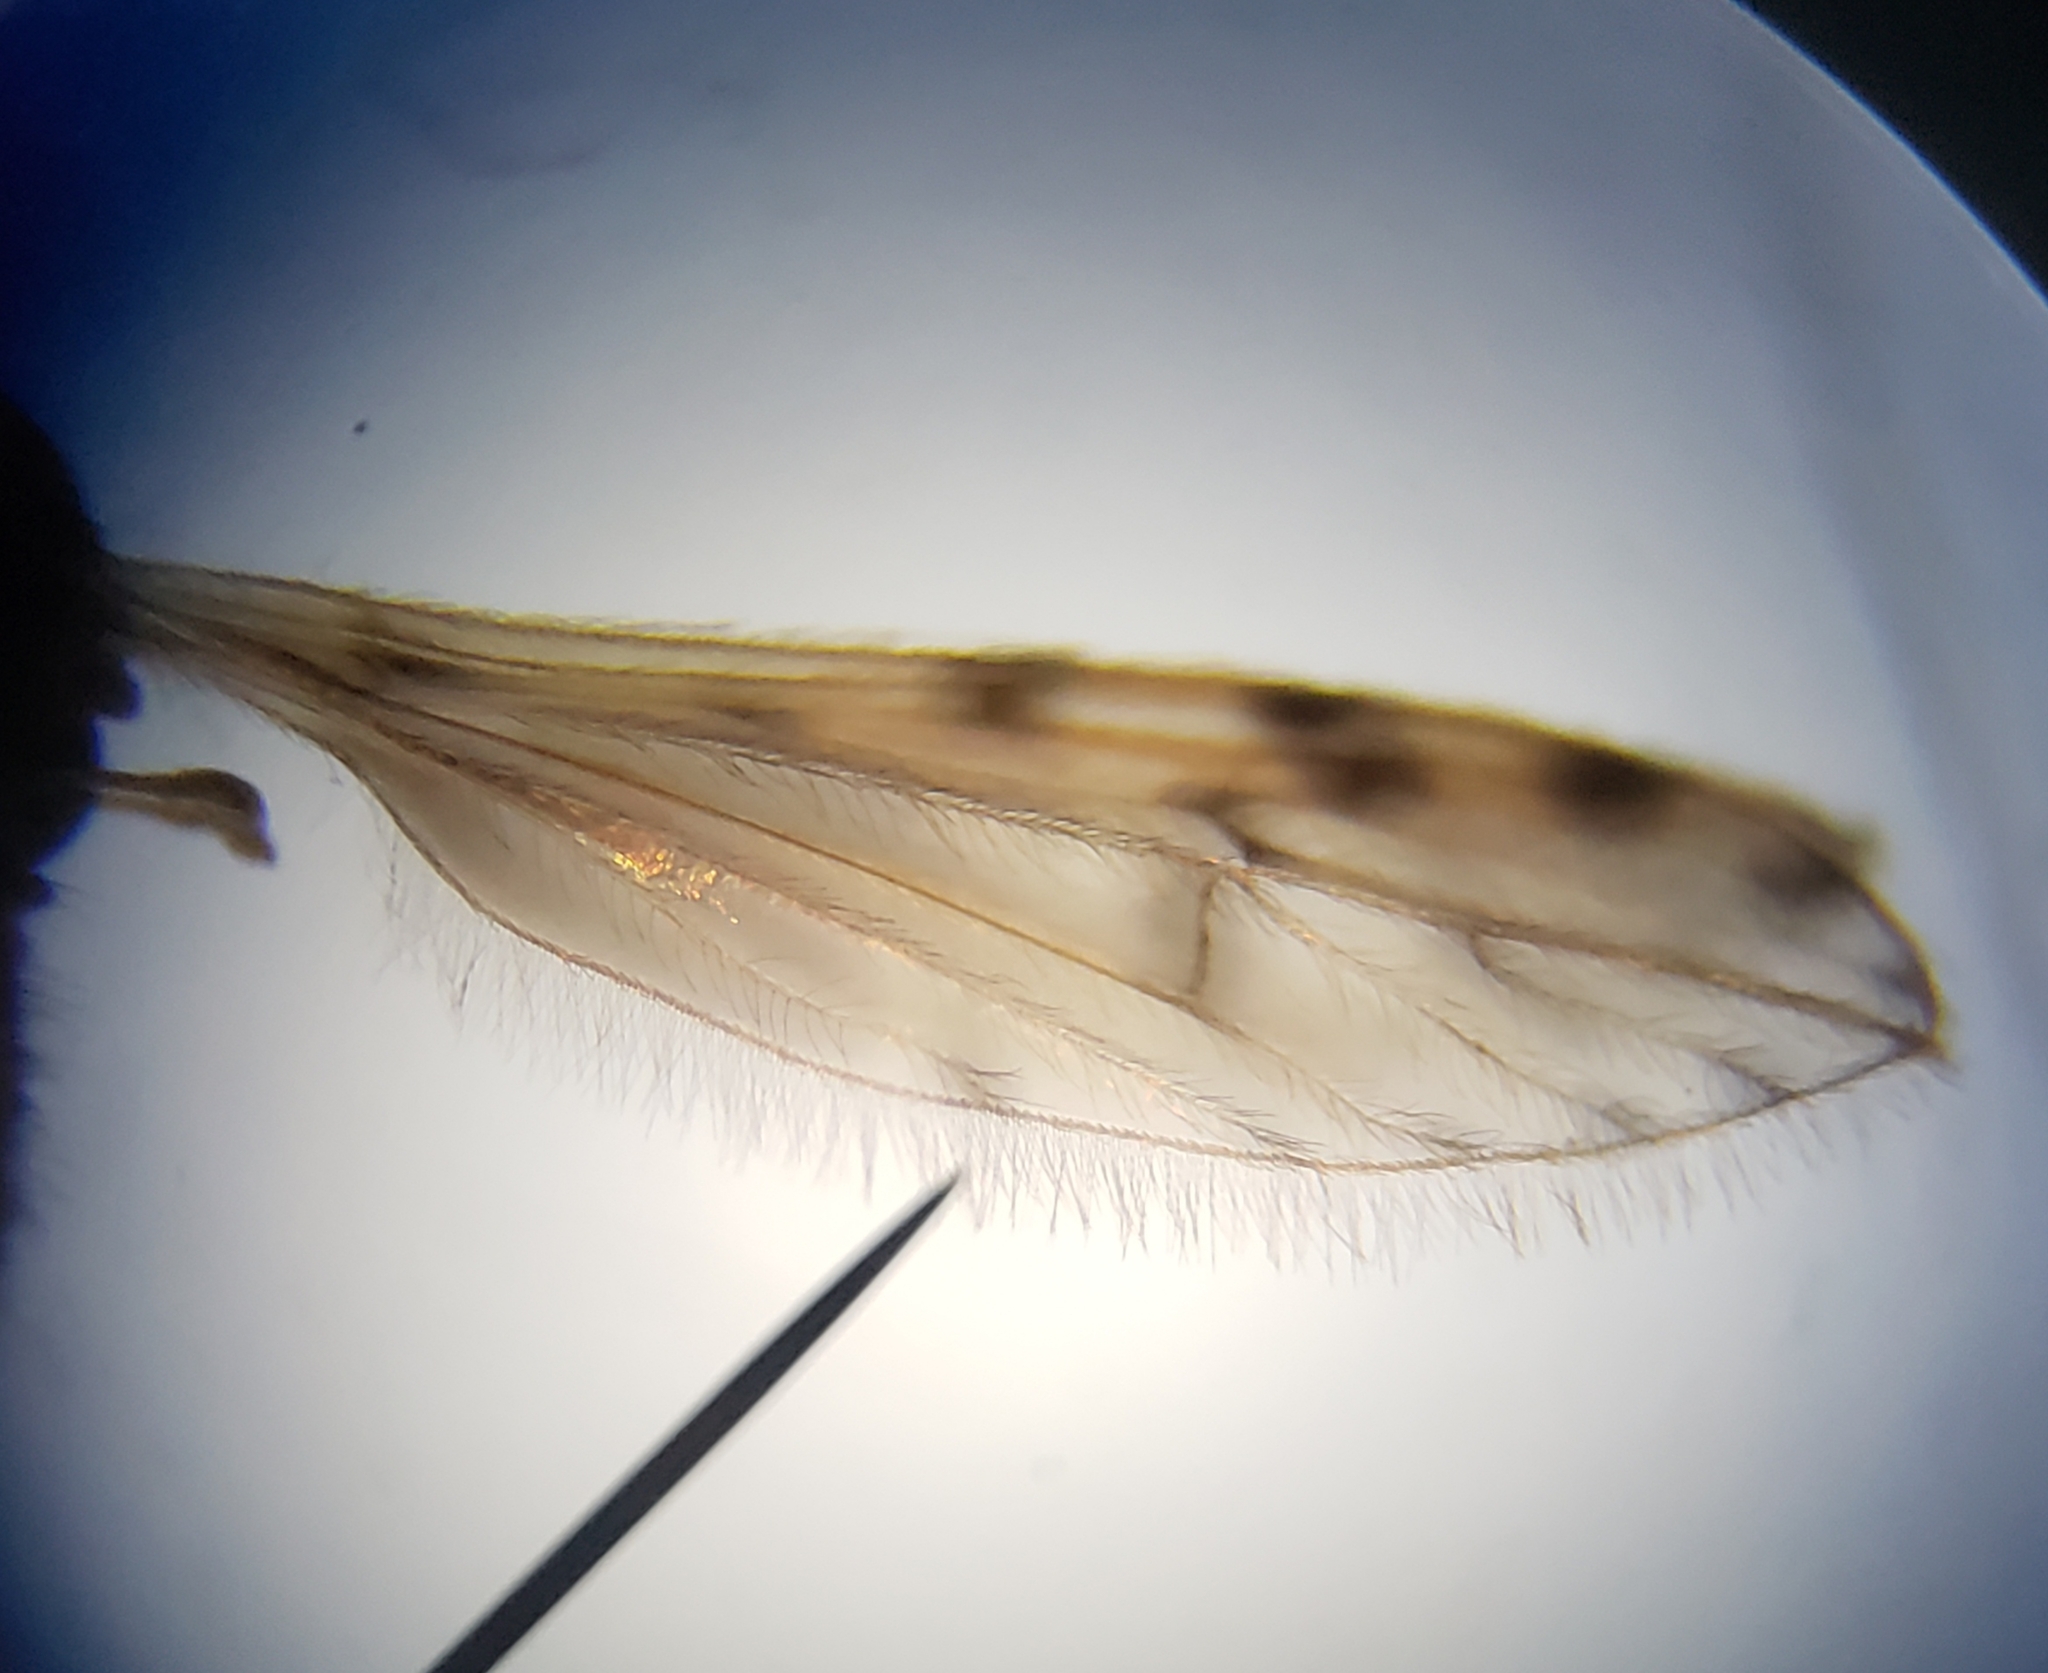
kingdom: Animalia
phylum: Arthropoda
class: Insecta
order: Diptera
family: Limoniidae
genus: Erioptera
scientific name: Erioptera parva
